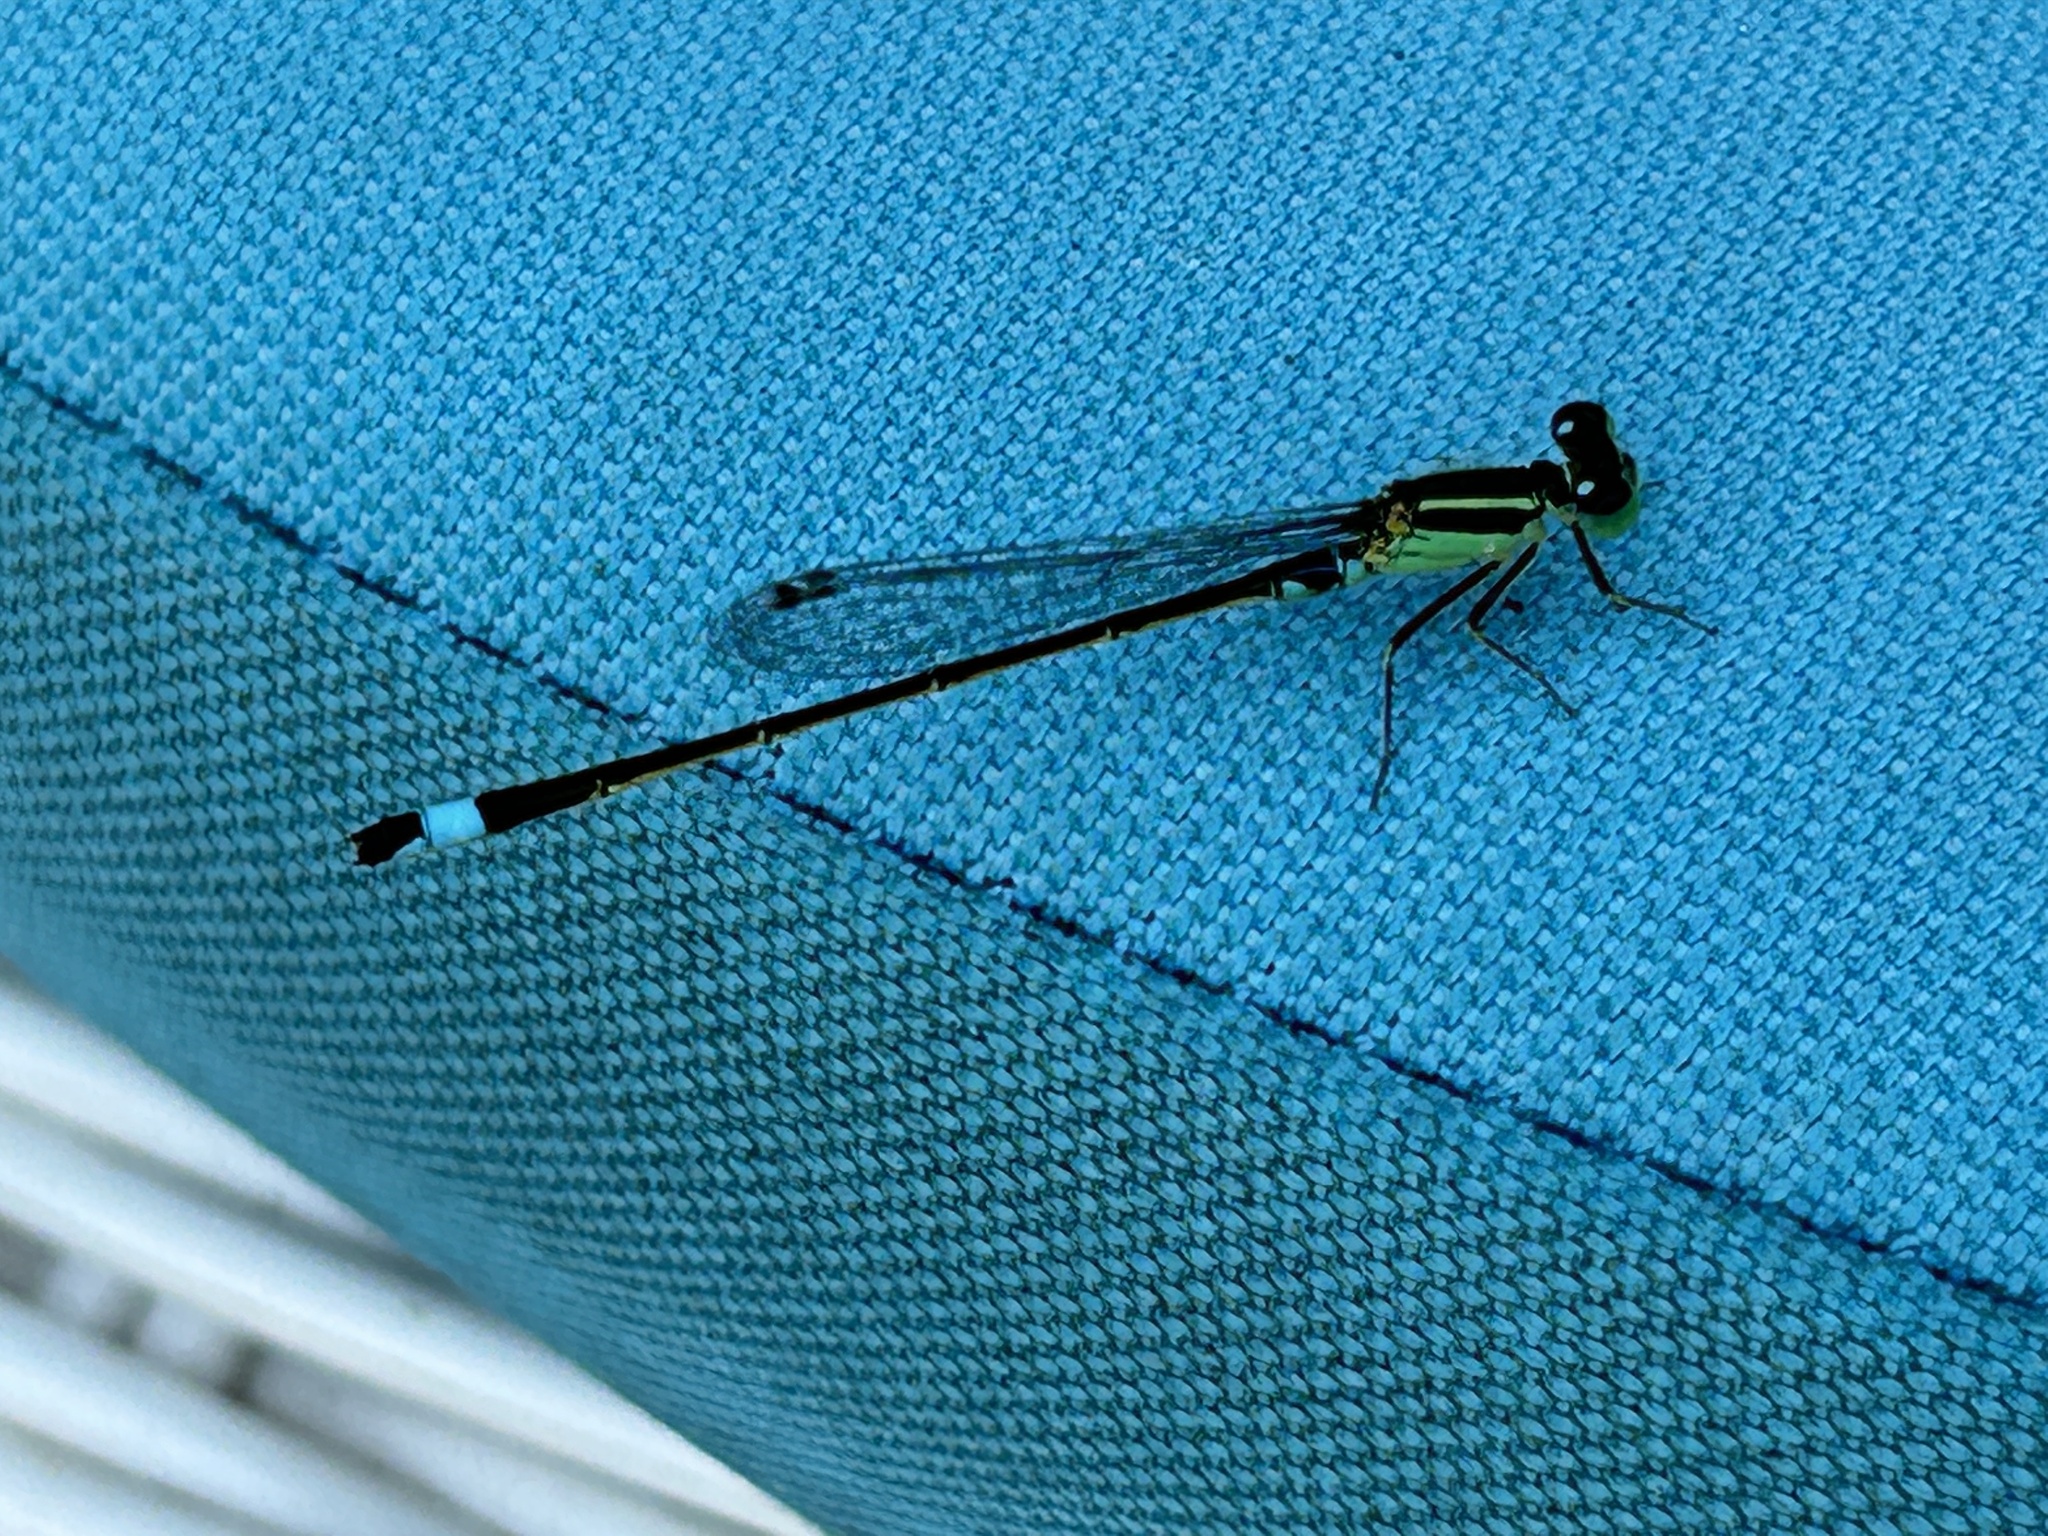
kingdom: Animalia
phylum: Arthropoda
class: Insecta
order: Odonata
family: Coenagrionidae
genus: Ischnura
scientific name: Ischnura senegalensis
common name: Tropical bluetail
